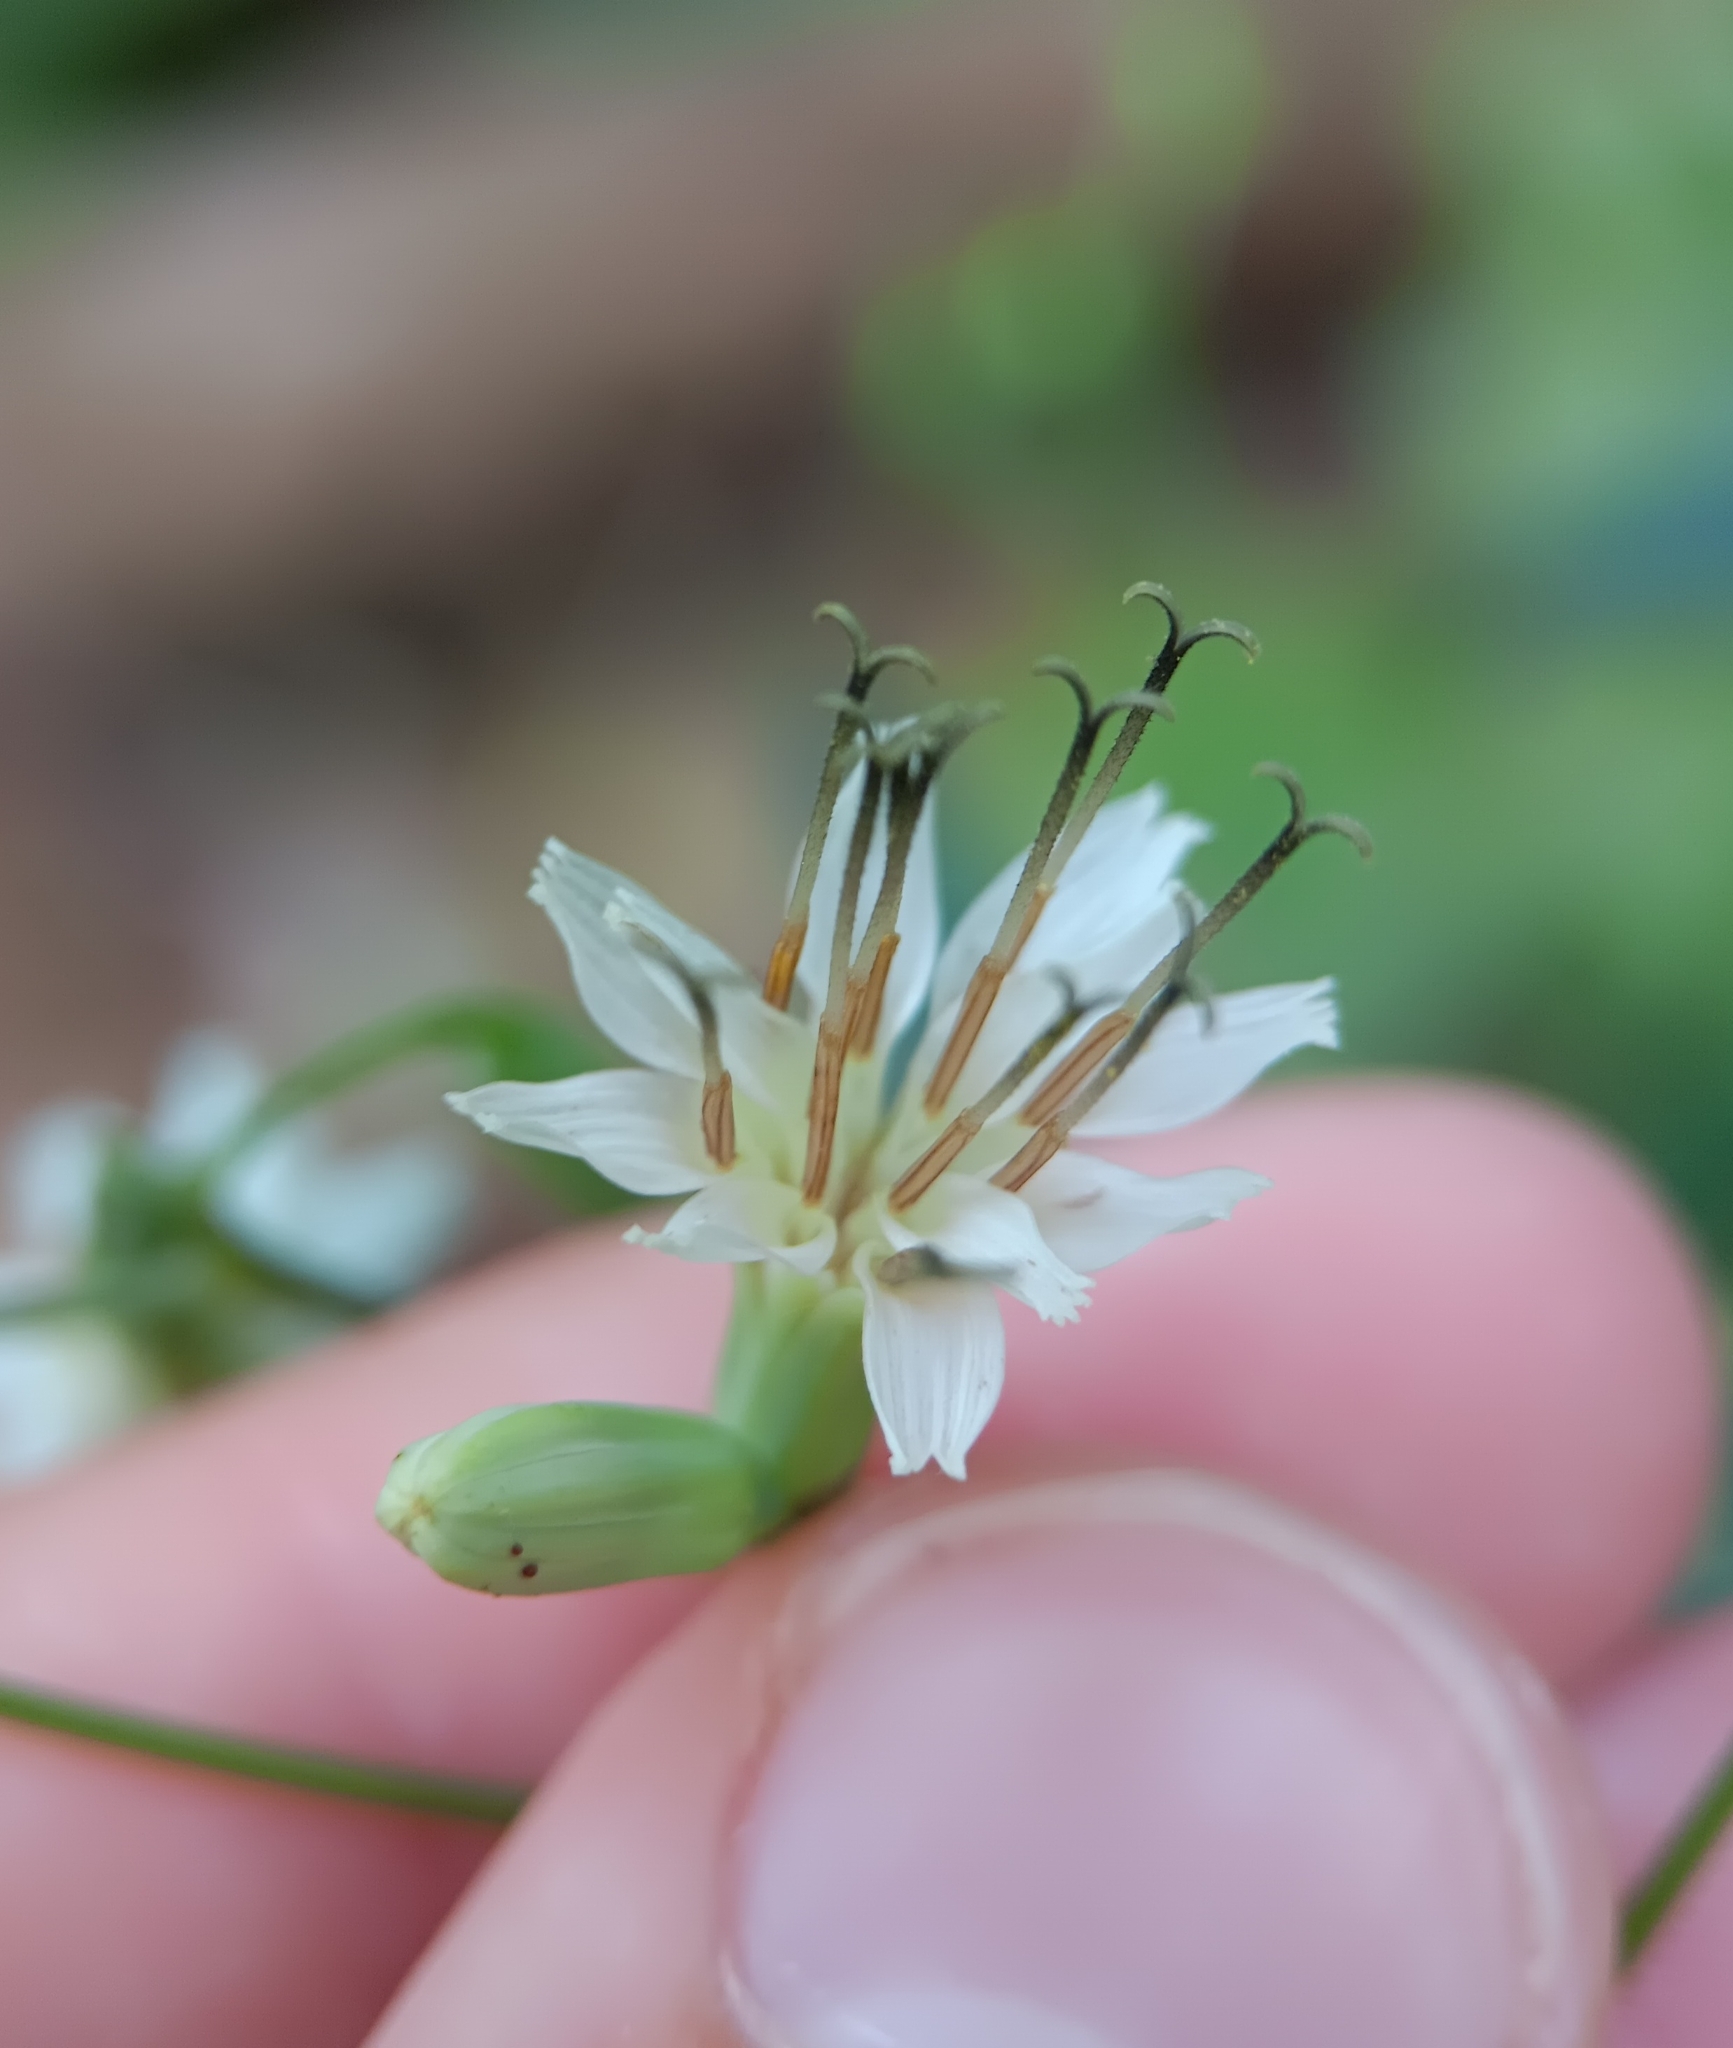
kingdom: Plantae
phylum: Tracheophyta
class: Magnoliopsida
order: Asterales
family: Asteraceae
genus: Nabalus
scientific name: Nabalus trifoliolatus
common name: Gall-of-the-earth
